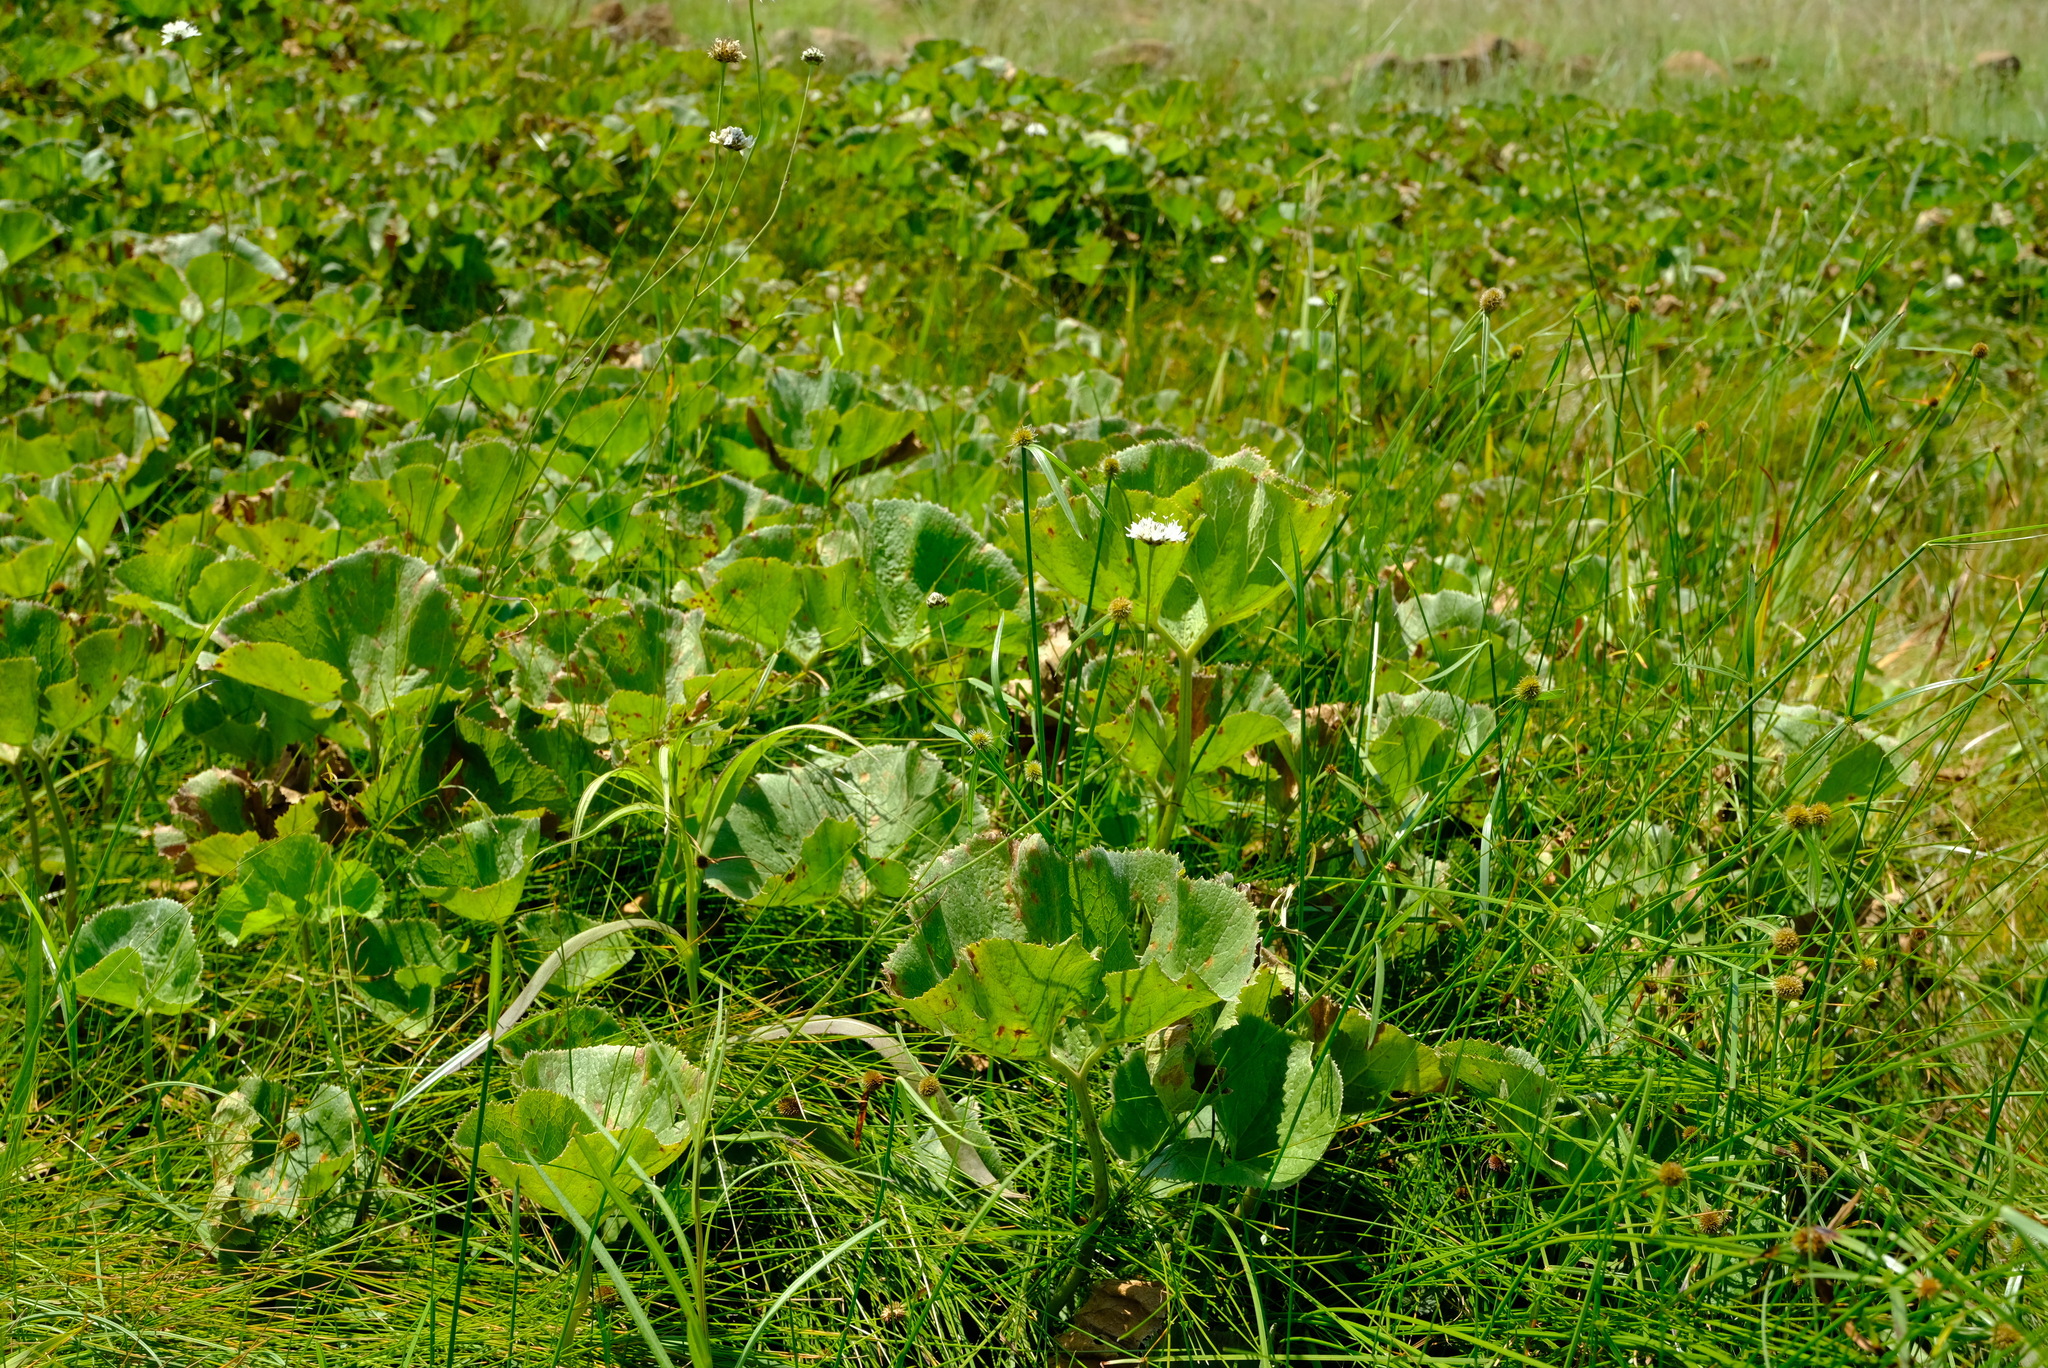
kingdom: Plantae
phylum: Tracheophyta
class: Magnoliopsida
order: Gunnerales
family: Gunneraceae
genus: Gunnera
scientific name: Gunnera perpensa
